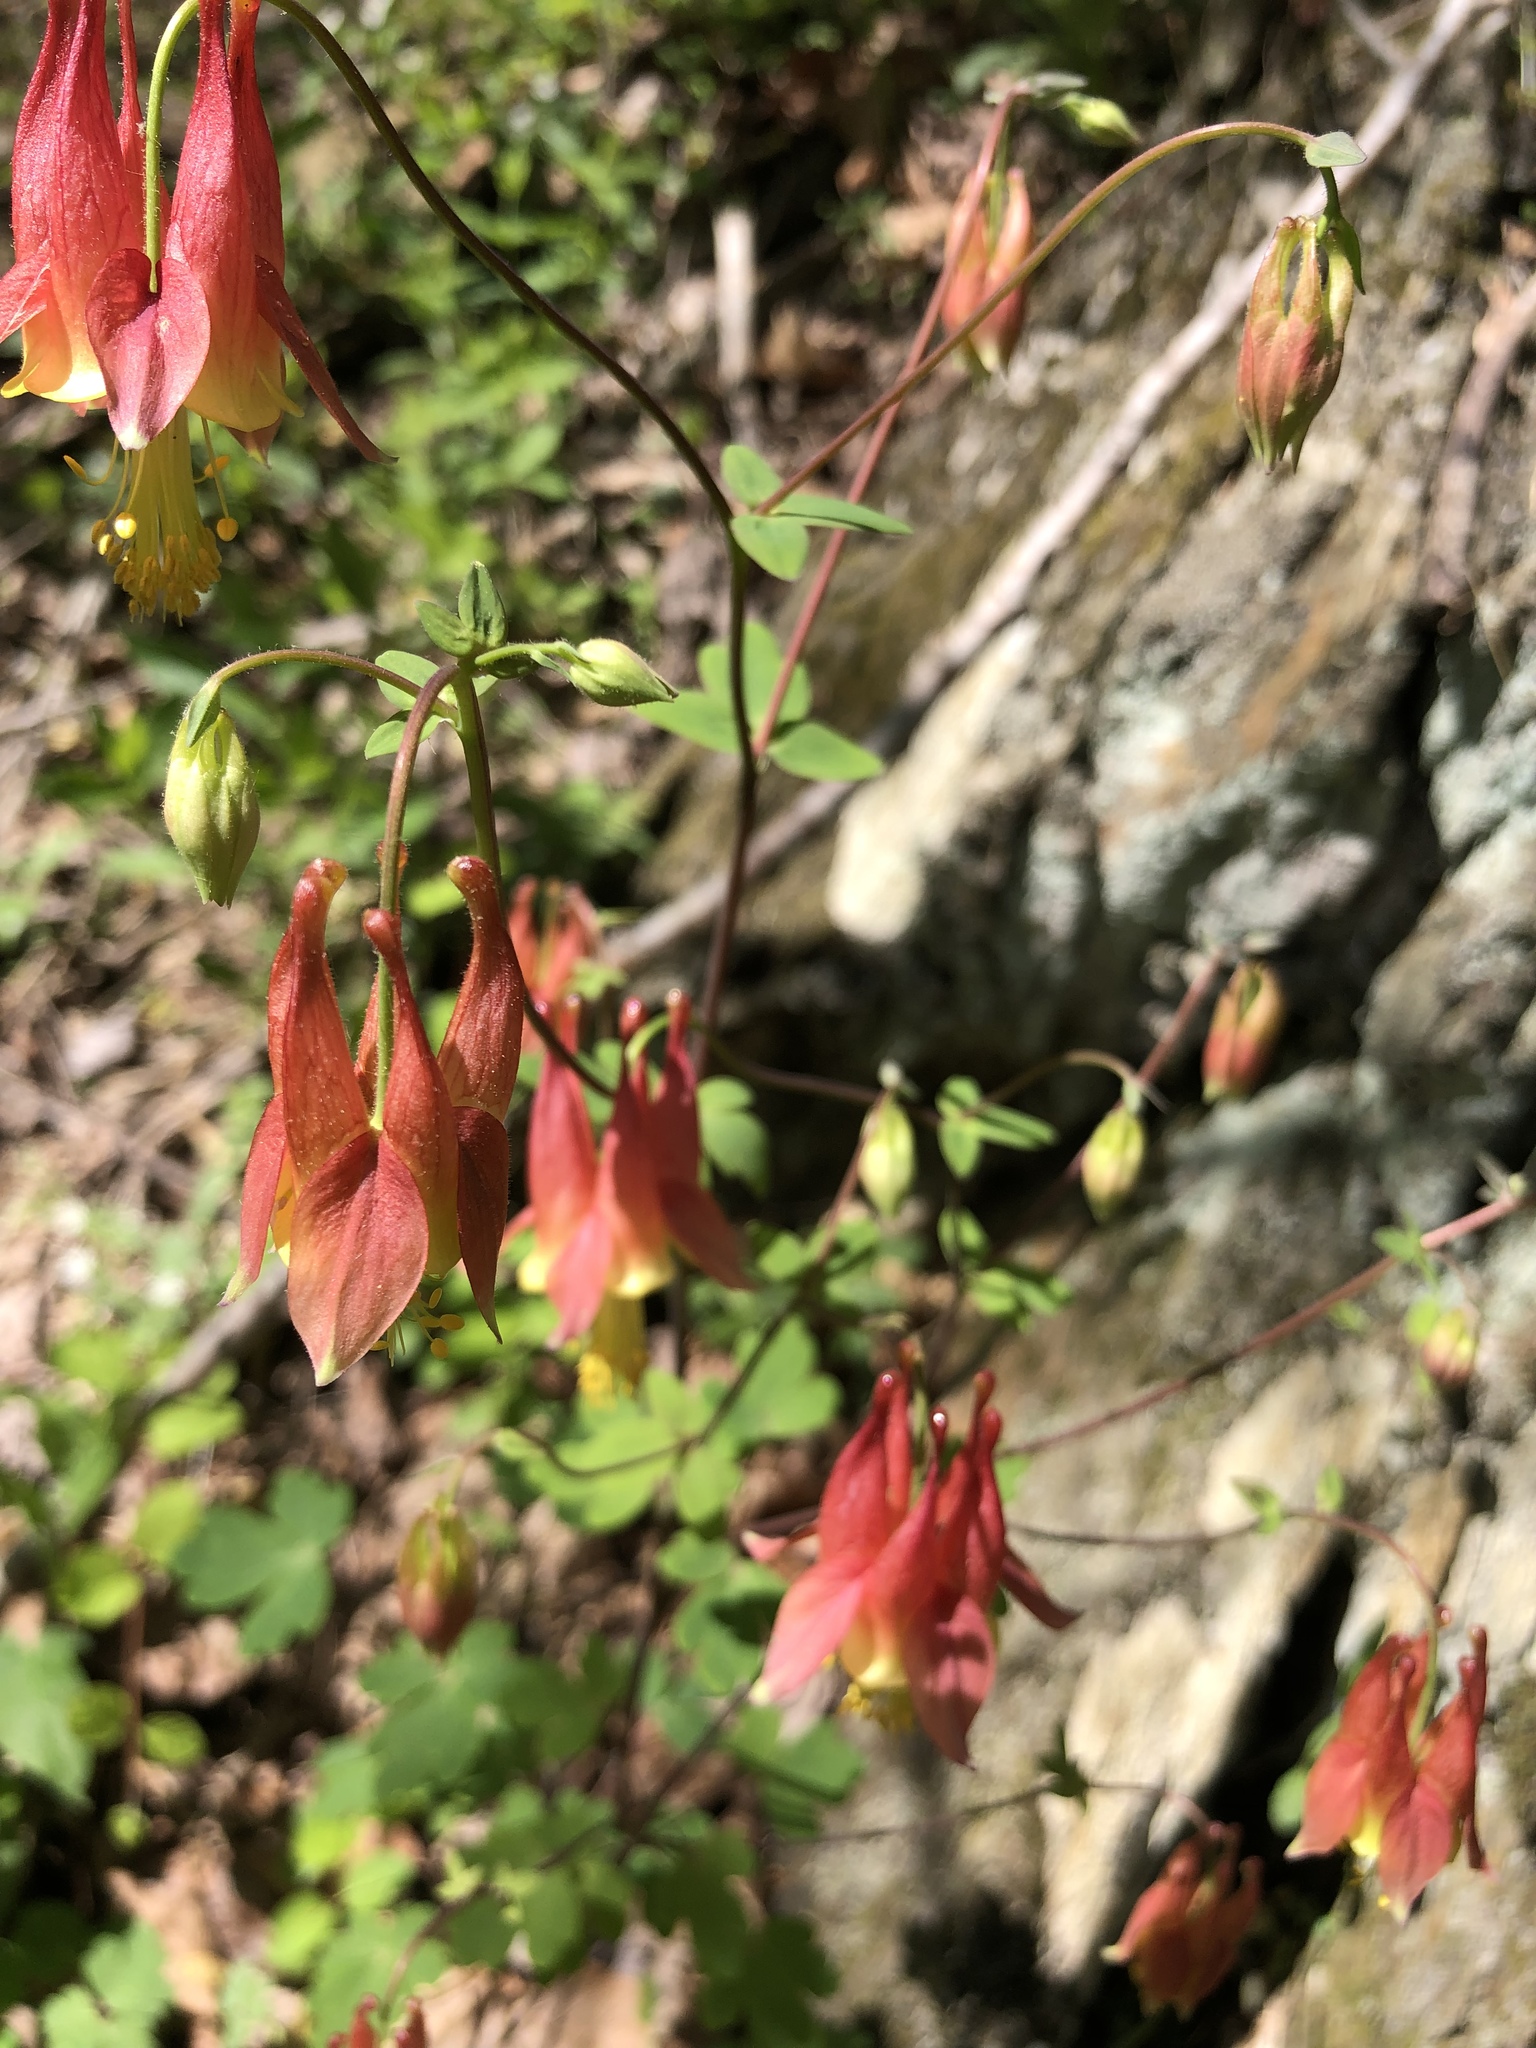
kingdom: Plantae
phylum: Tracheophyta
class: Magnoliopsida
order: Ranunculales
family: Ranunculaceae
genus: Aquilegia
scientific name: Aquilegia canadensis
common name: American columbine
